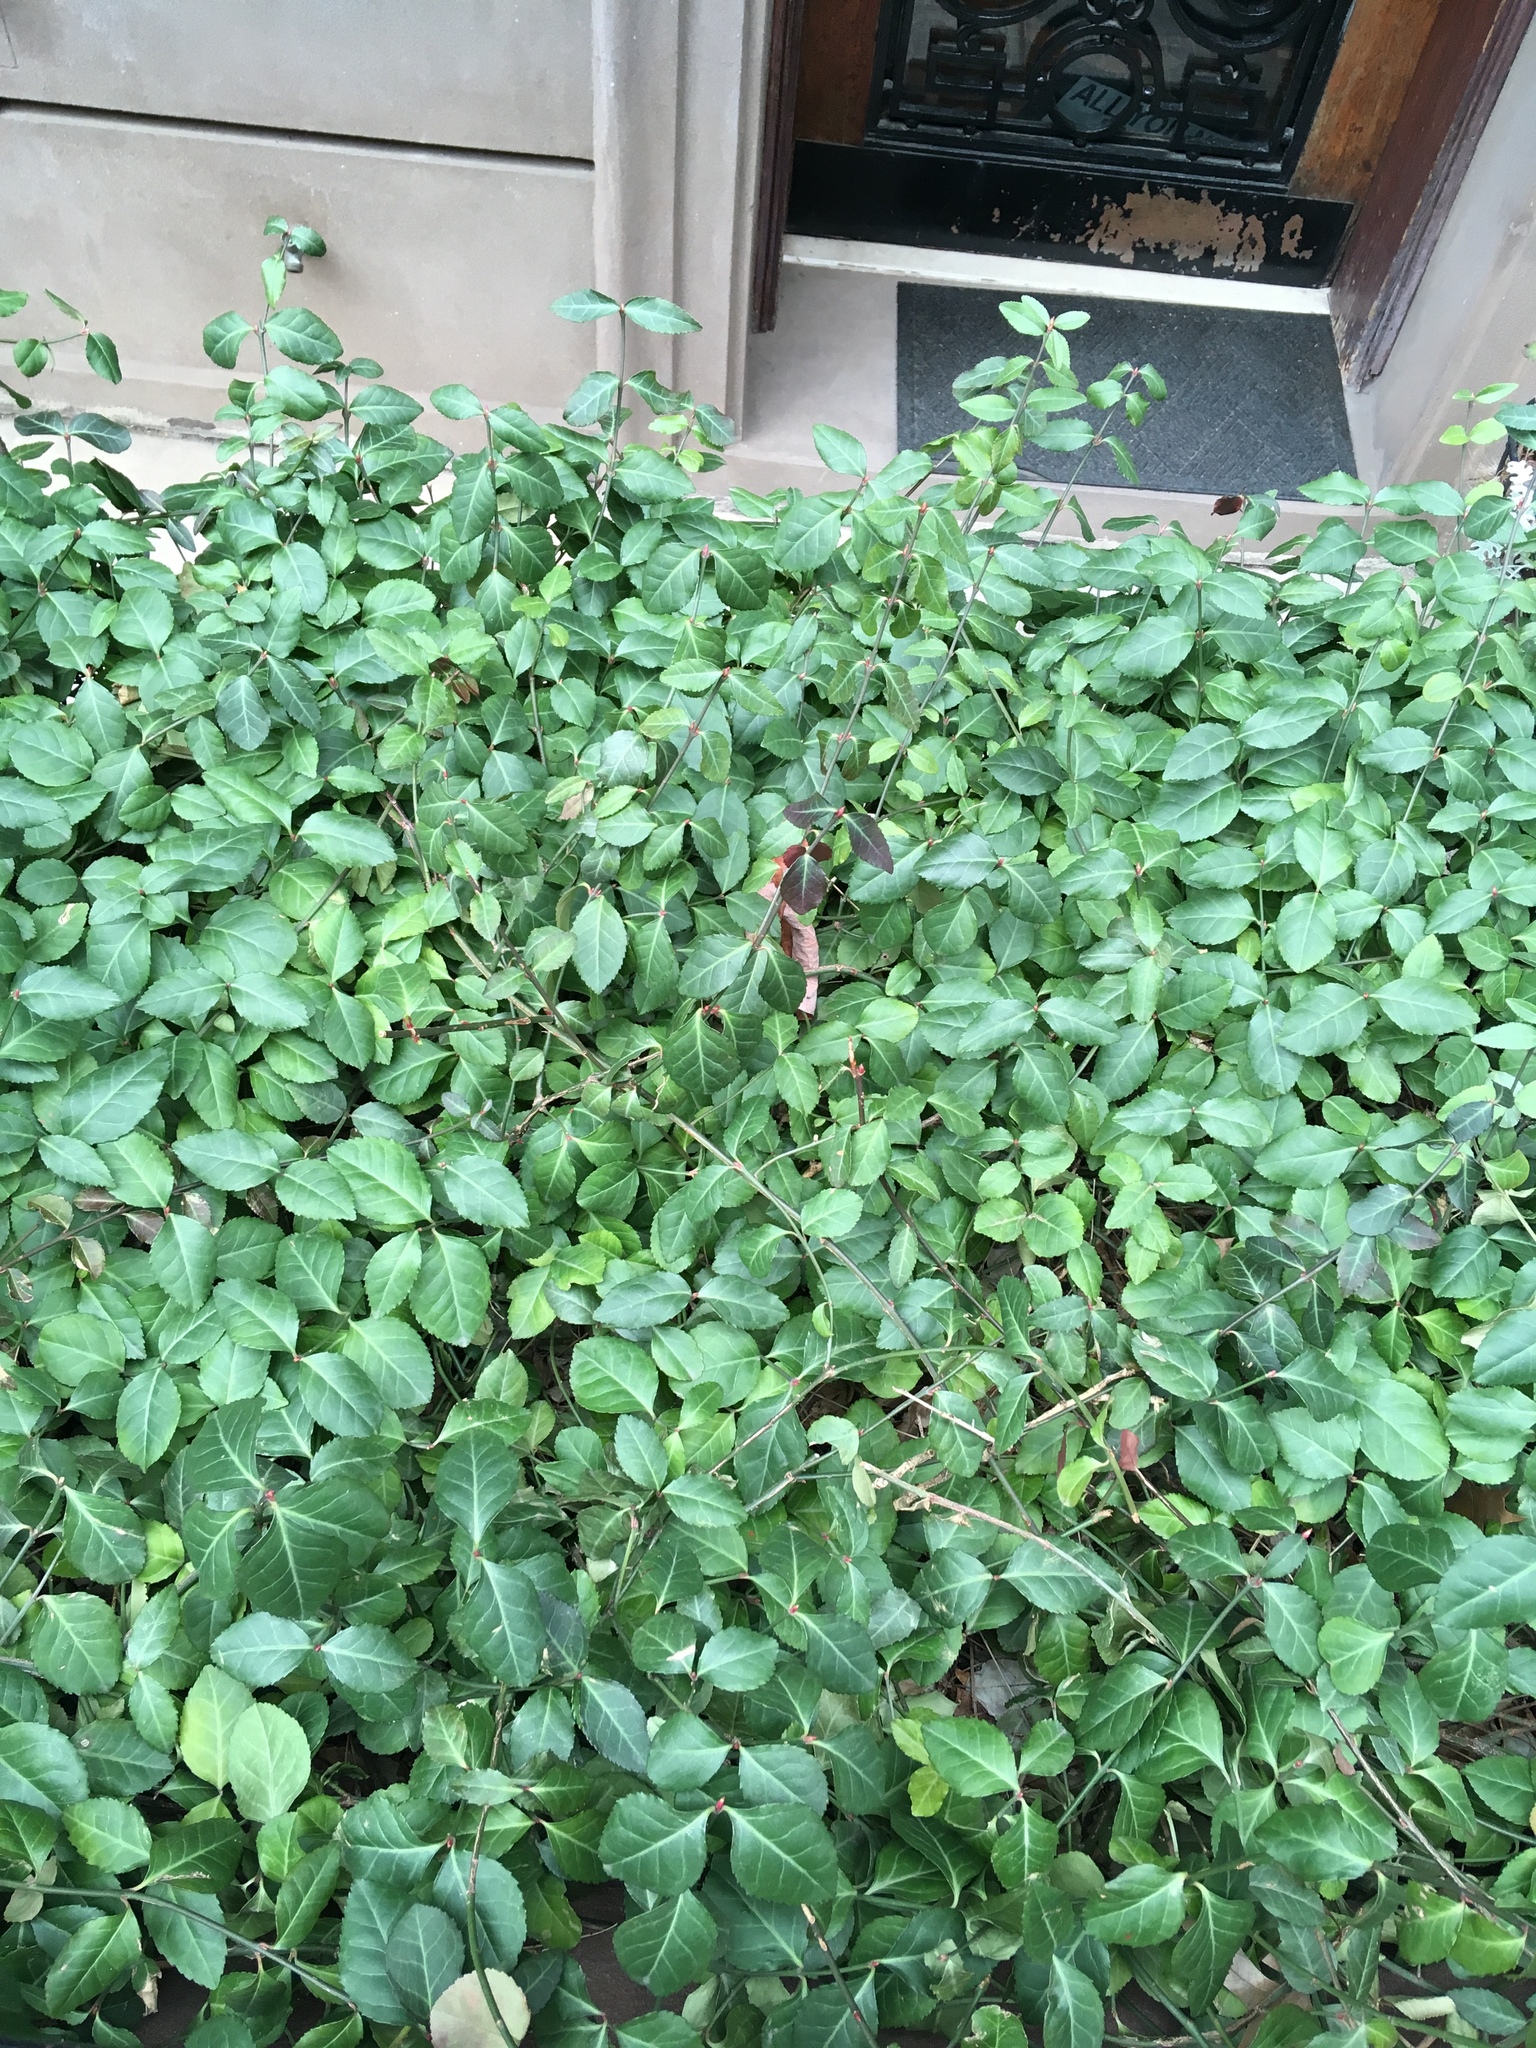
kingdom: Plantae
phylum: Tracheophyta
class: Magnoliopsida
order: Celastrales
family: Celastraceae
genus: Euonymus
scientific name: Euonymus fortunei
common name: Climbing euonymus
